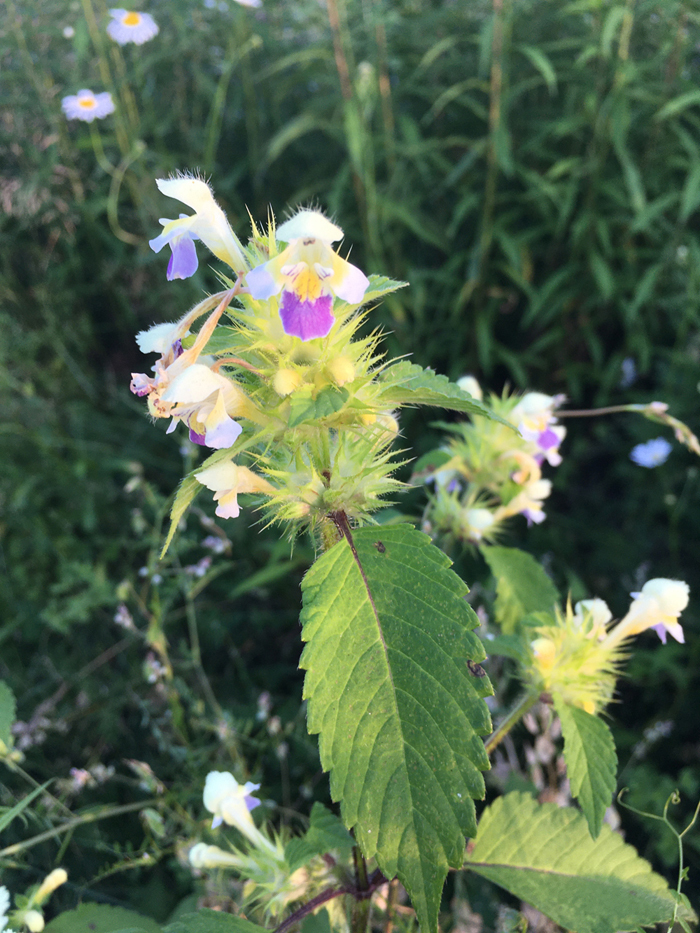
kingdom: Plantae
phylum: Tracheophyta
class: Magnoliopsida
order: Lamiales
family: Lamiaceae
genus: Galeopsis
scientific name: Galeopsis speciosa
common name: Large-flowered hemp-nettle
